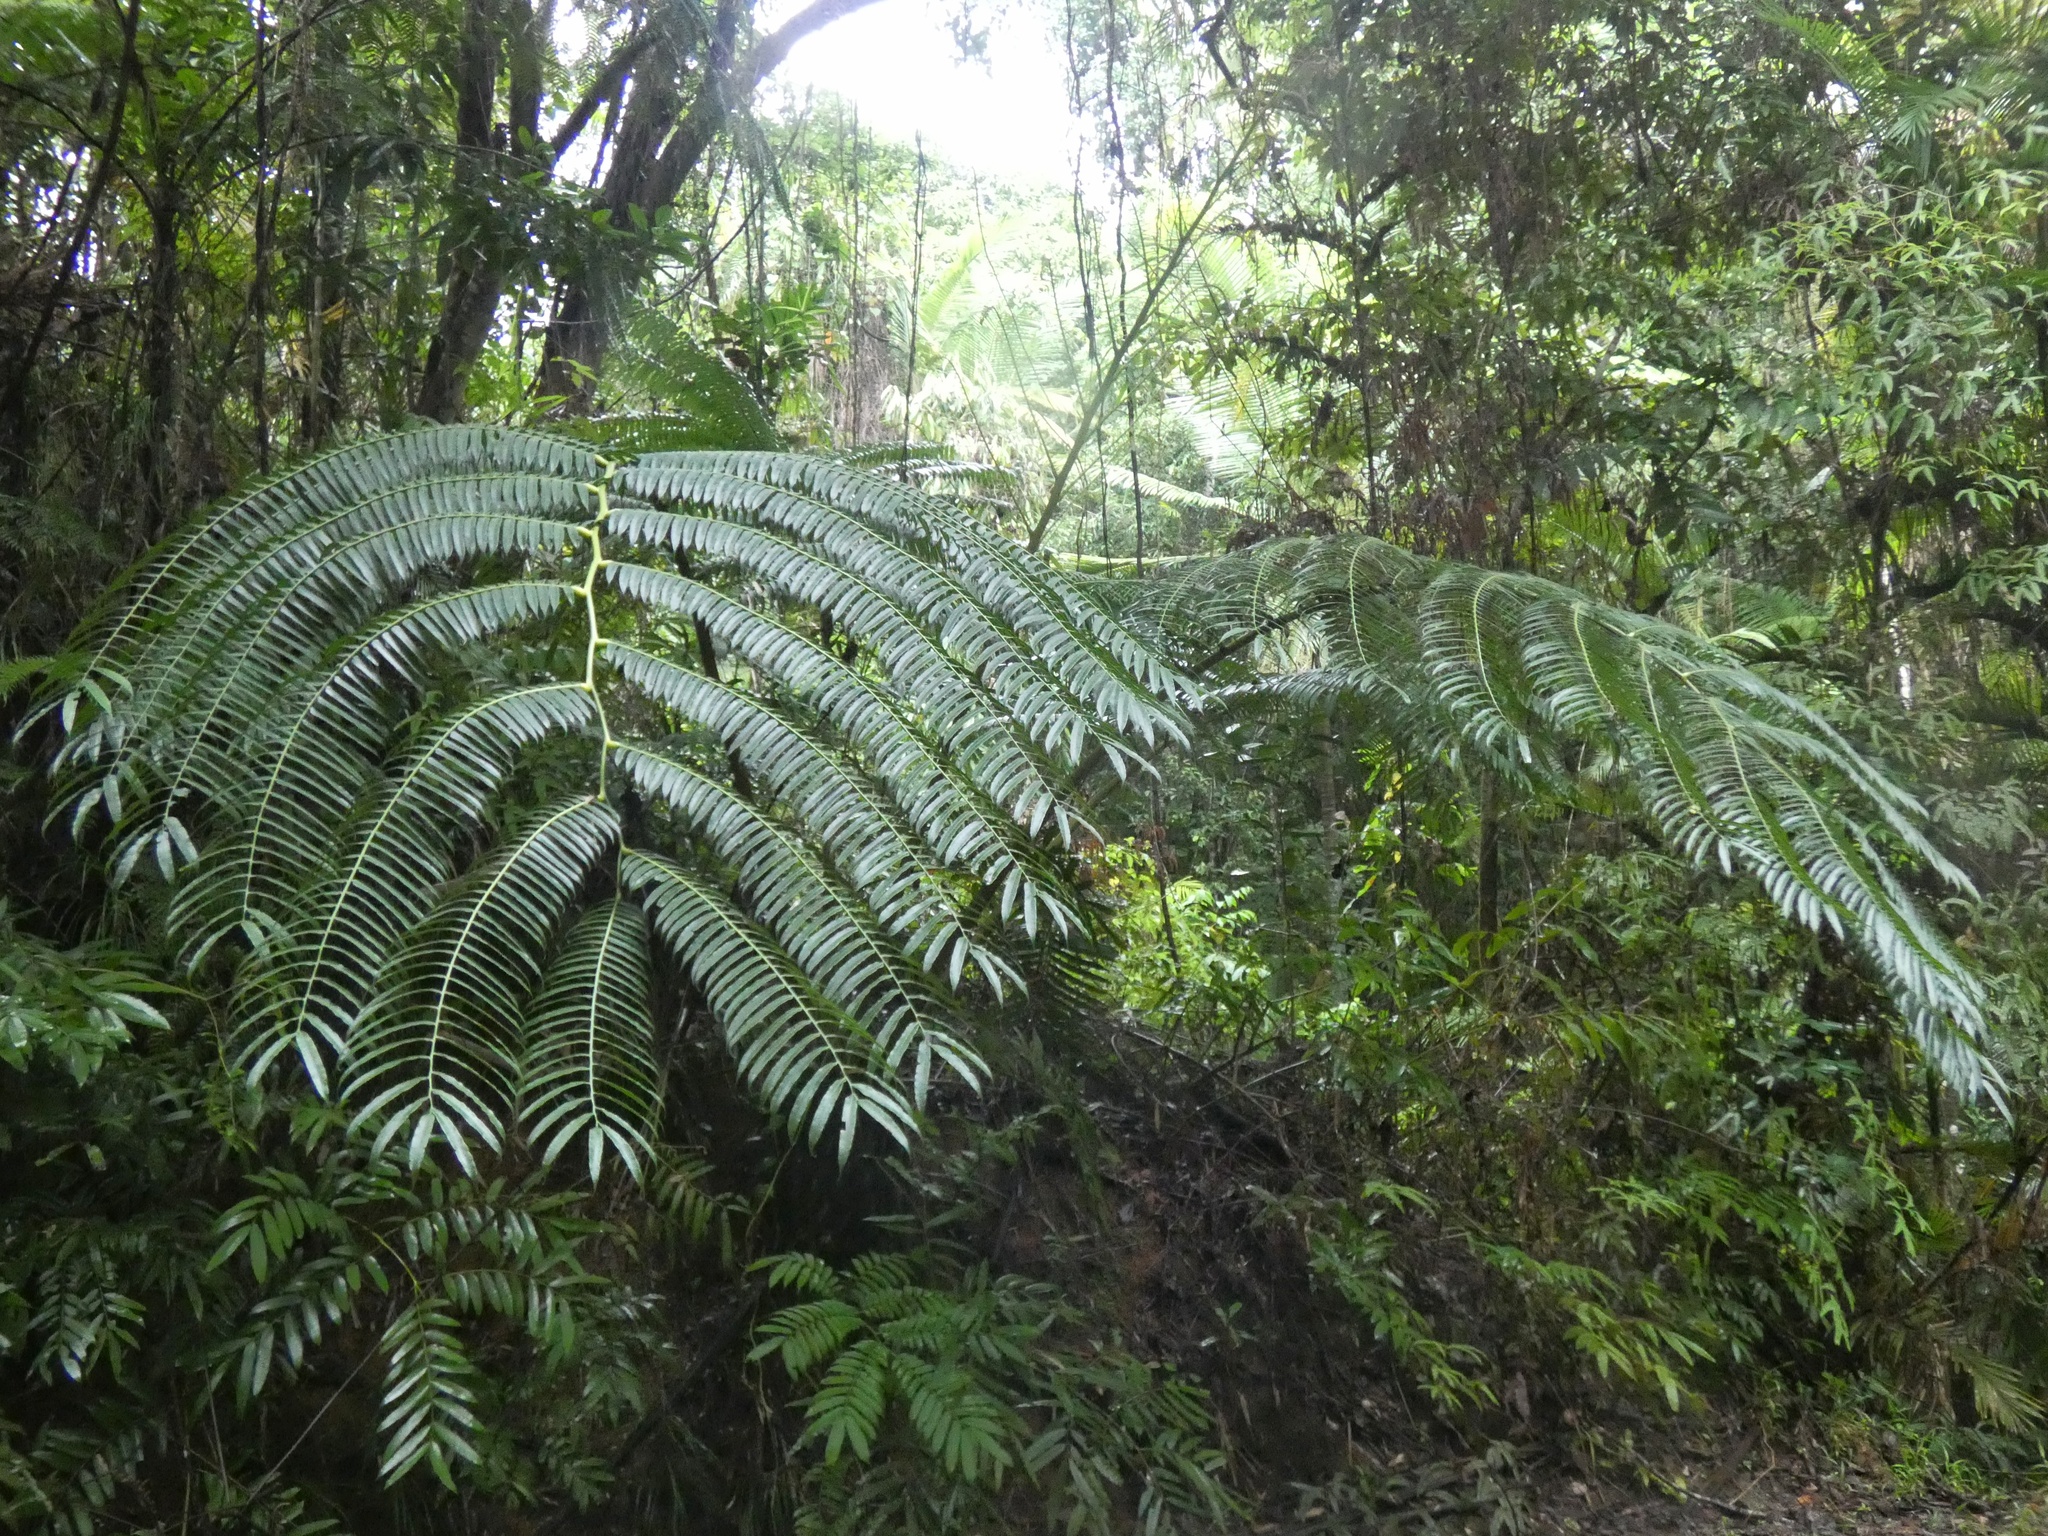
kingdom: Plantae
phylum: Tracheophyta
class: Polypodiopsida
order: Marattiales
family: Marattiaceae
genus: Angiopteris
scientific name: Angiopteris evecta
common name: Mule's-foot fern
